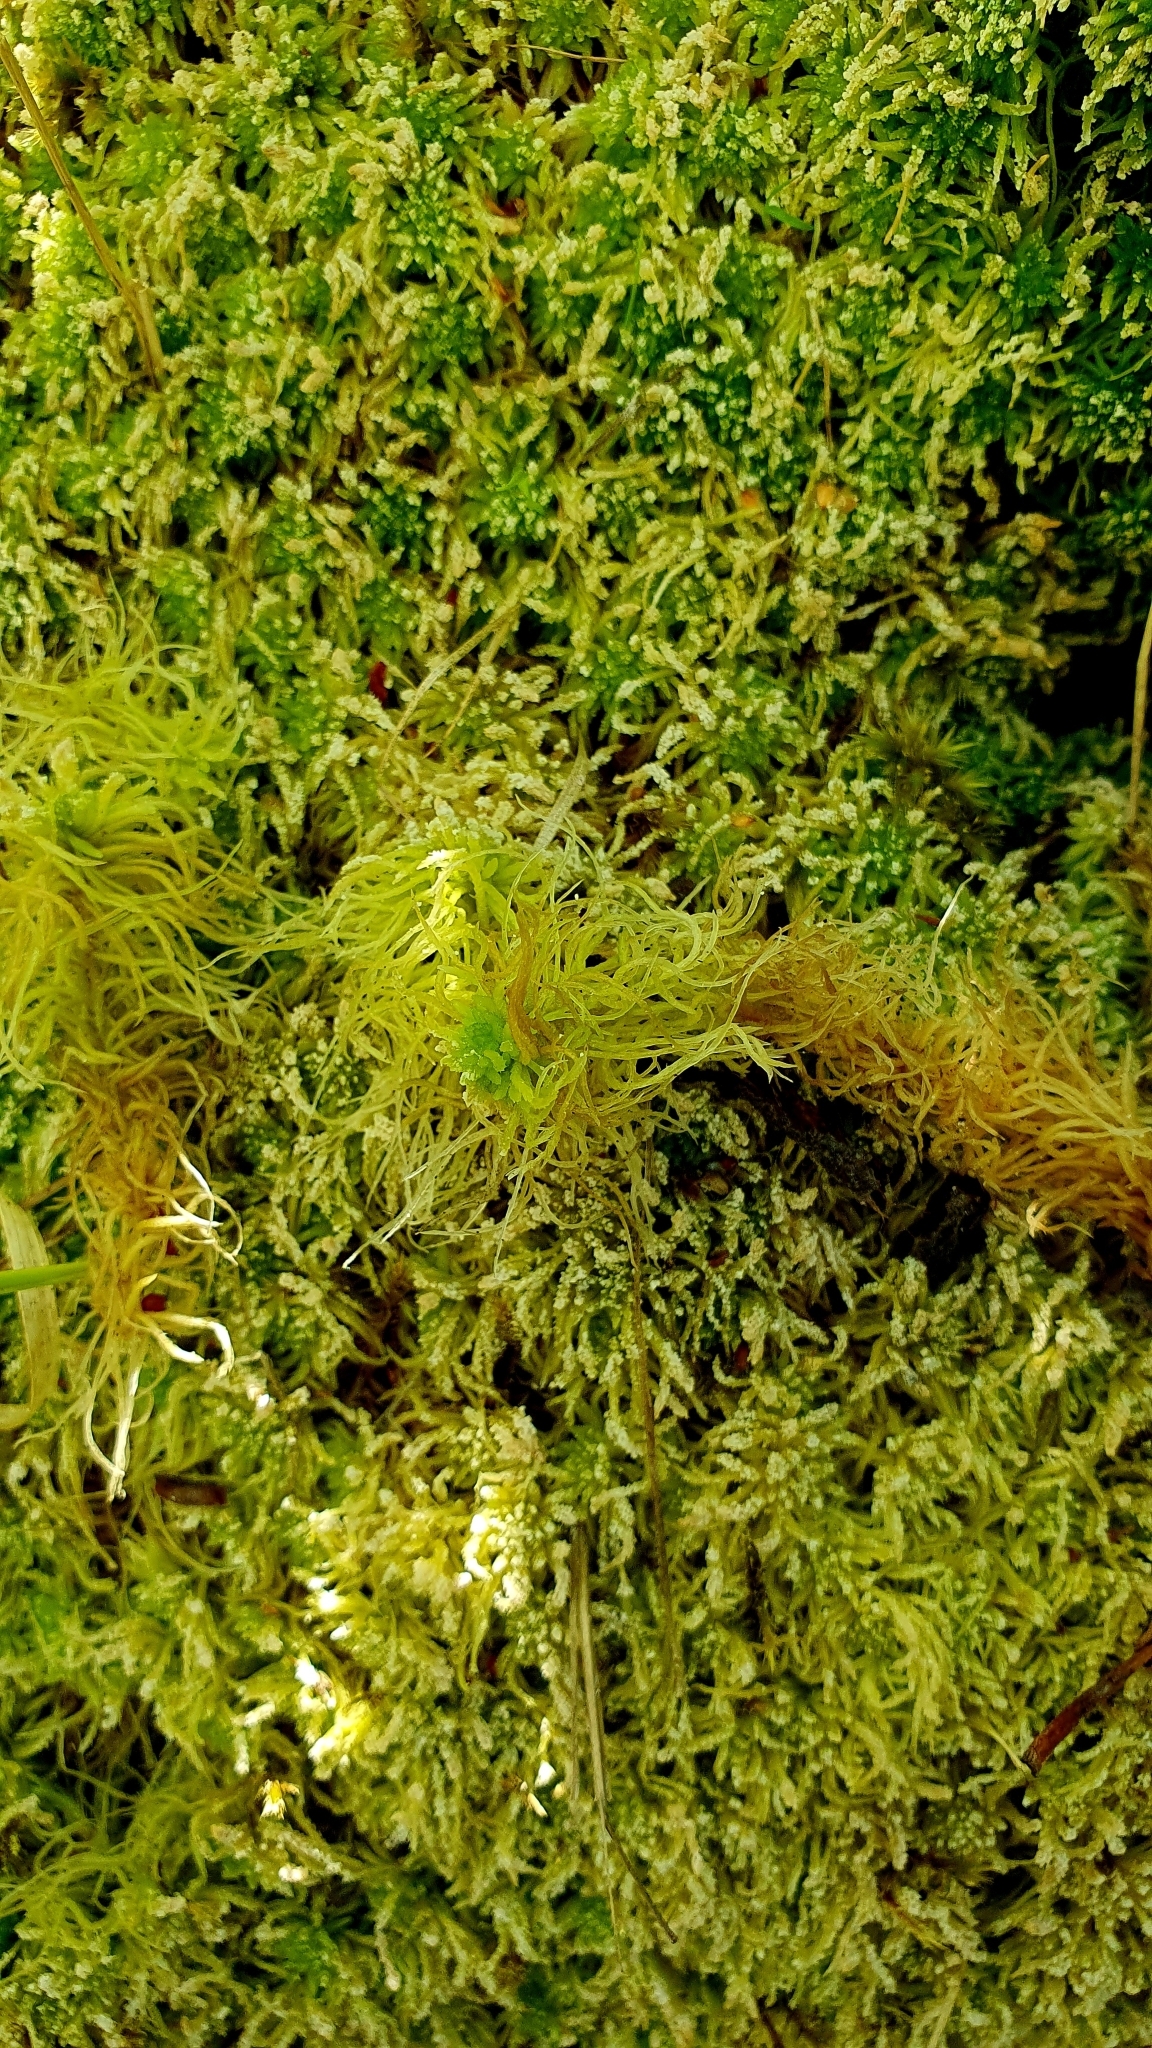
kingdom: Plantae
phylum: Bryophyta
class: Sphagnopsida
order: Sphagnales
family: Sphagnaceae
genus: Sphagnum
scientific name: Sphagnum girgensohnii
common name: Girgensohn's peat moss
